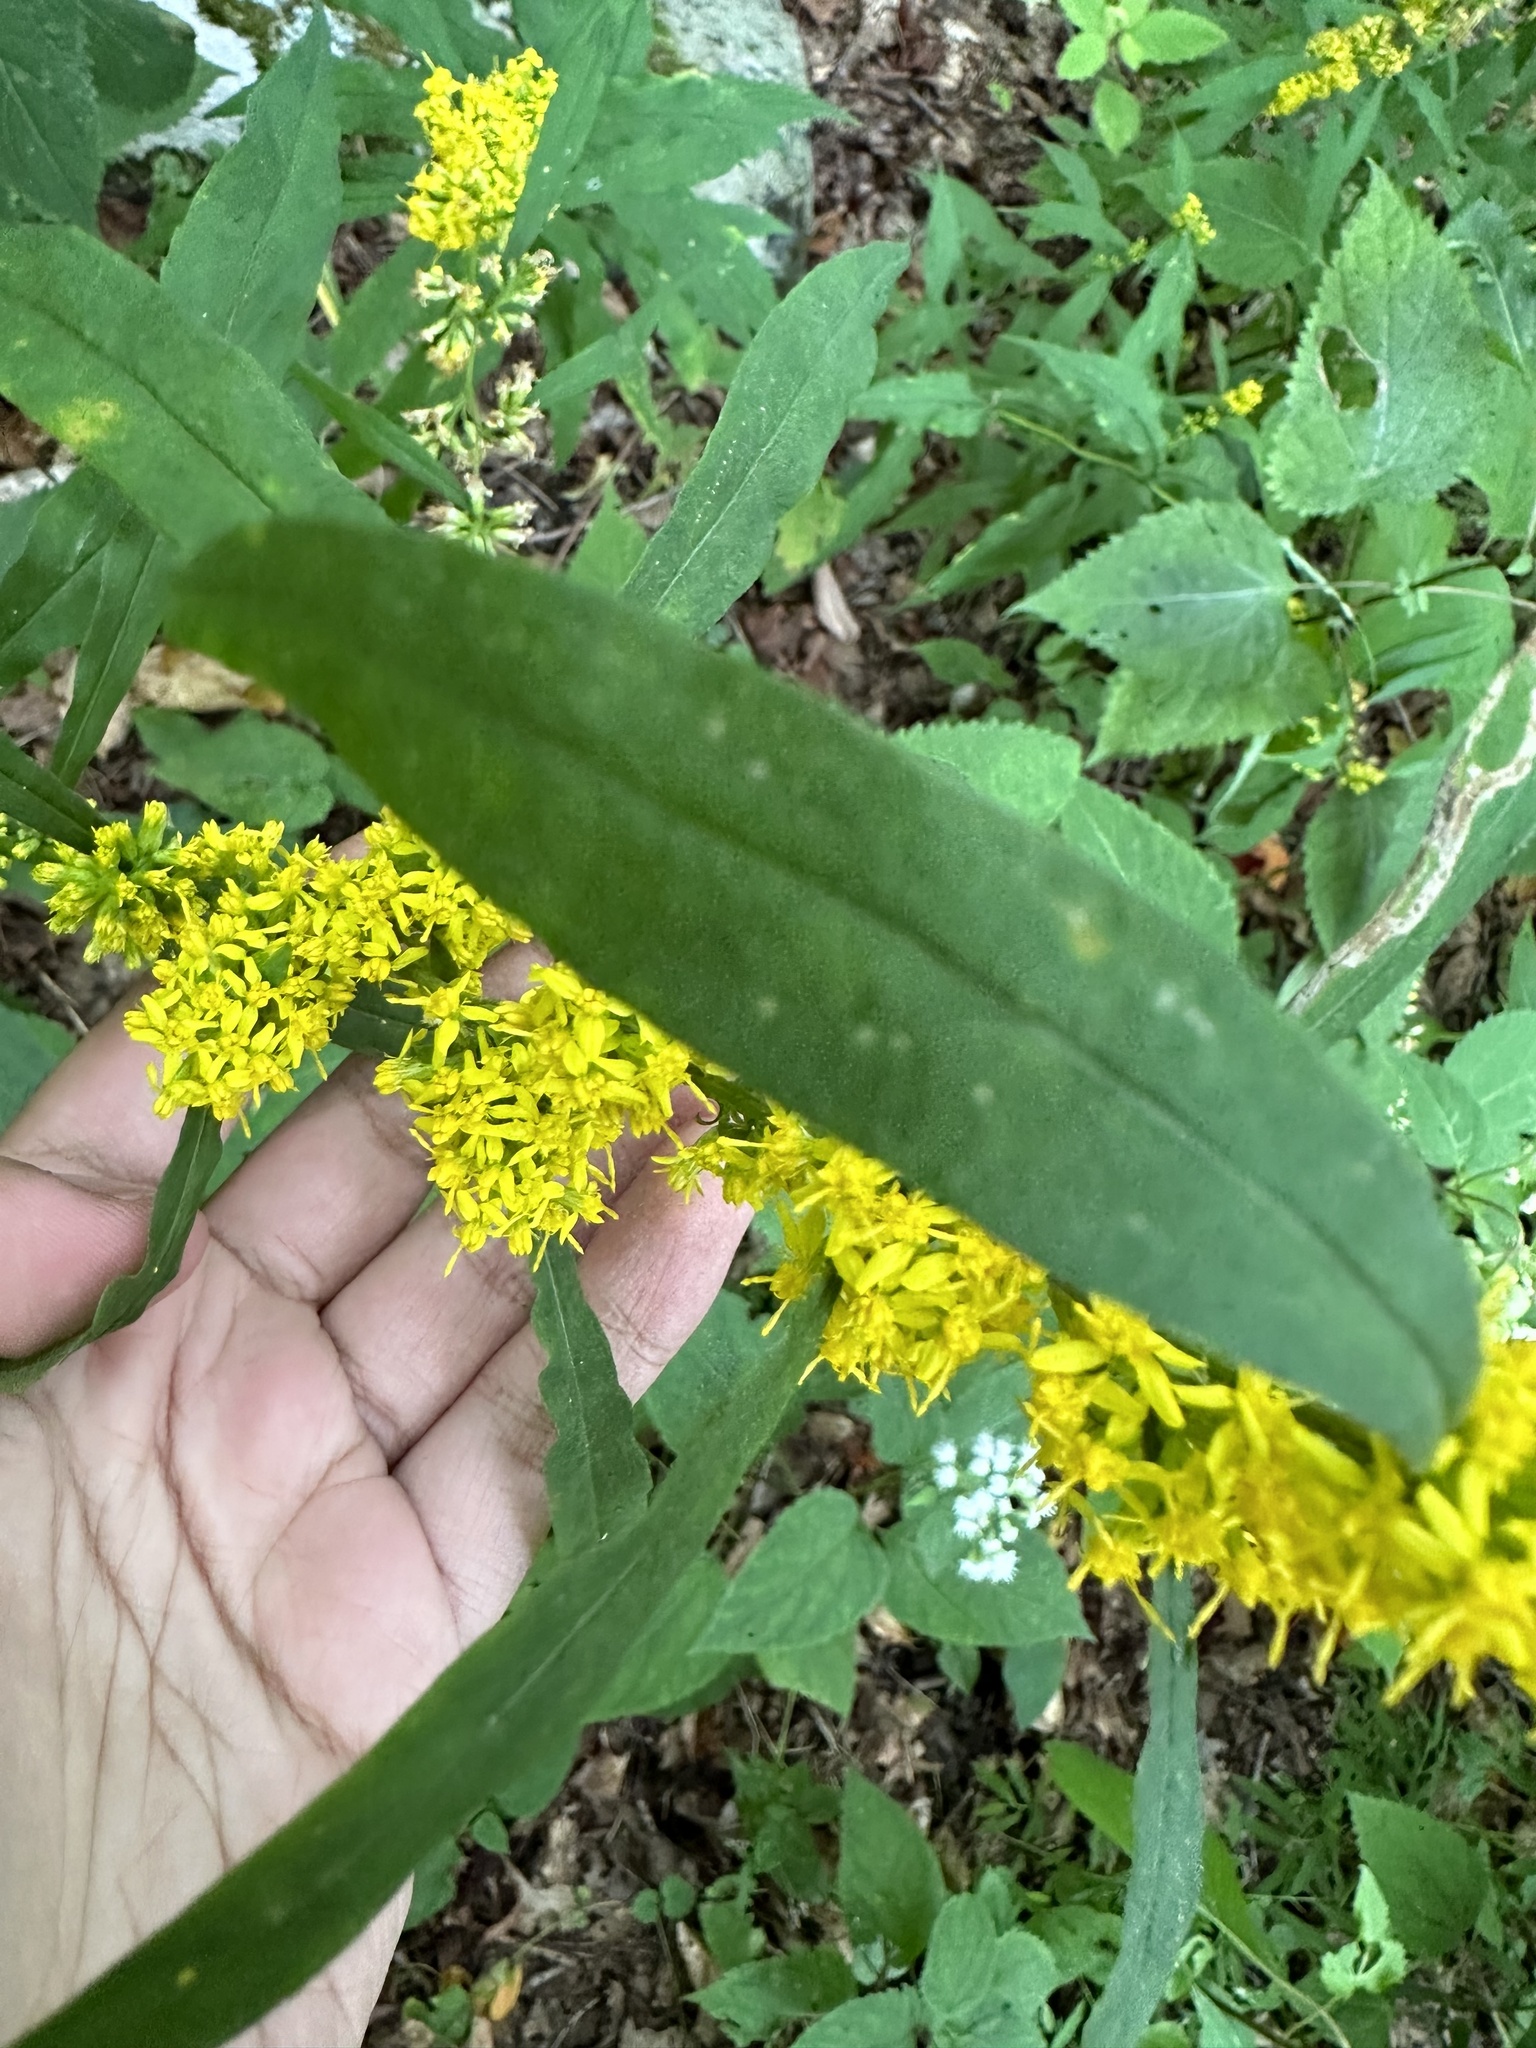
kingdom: Plantae
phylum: Tracheophyta
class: Magnoliopsida
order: Asterales
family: Asteraceae
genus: Solidago
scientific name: Solidago curtisii
